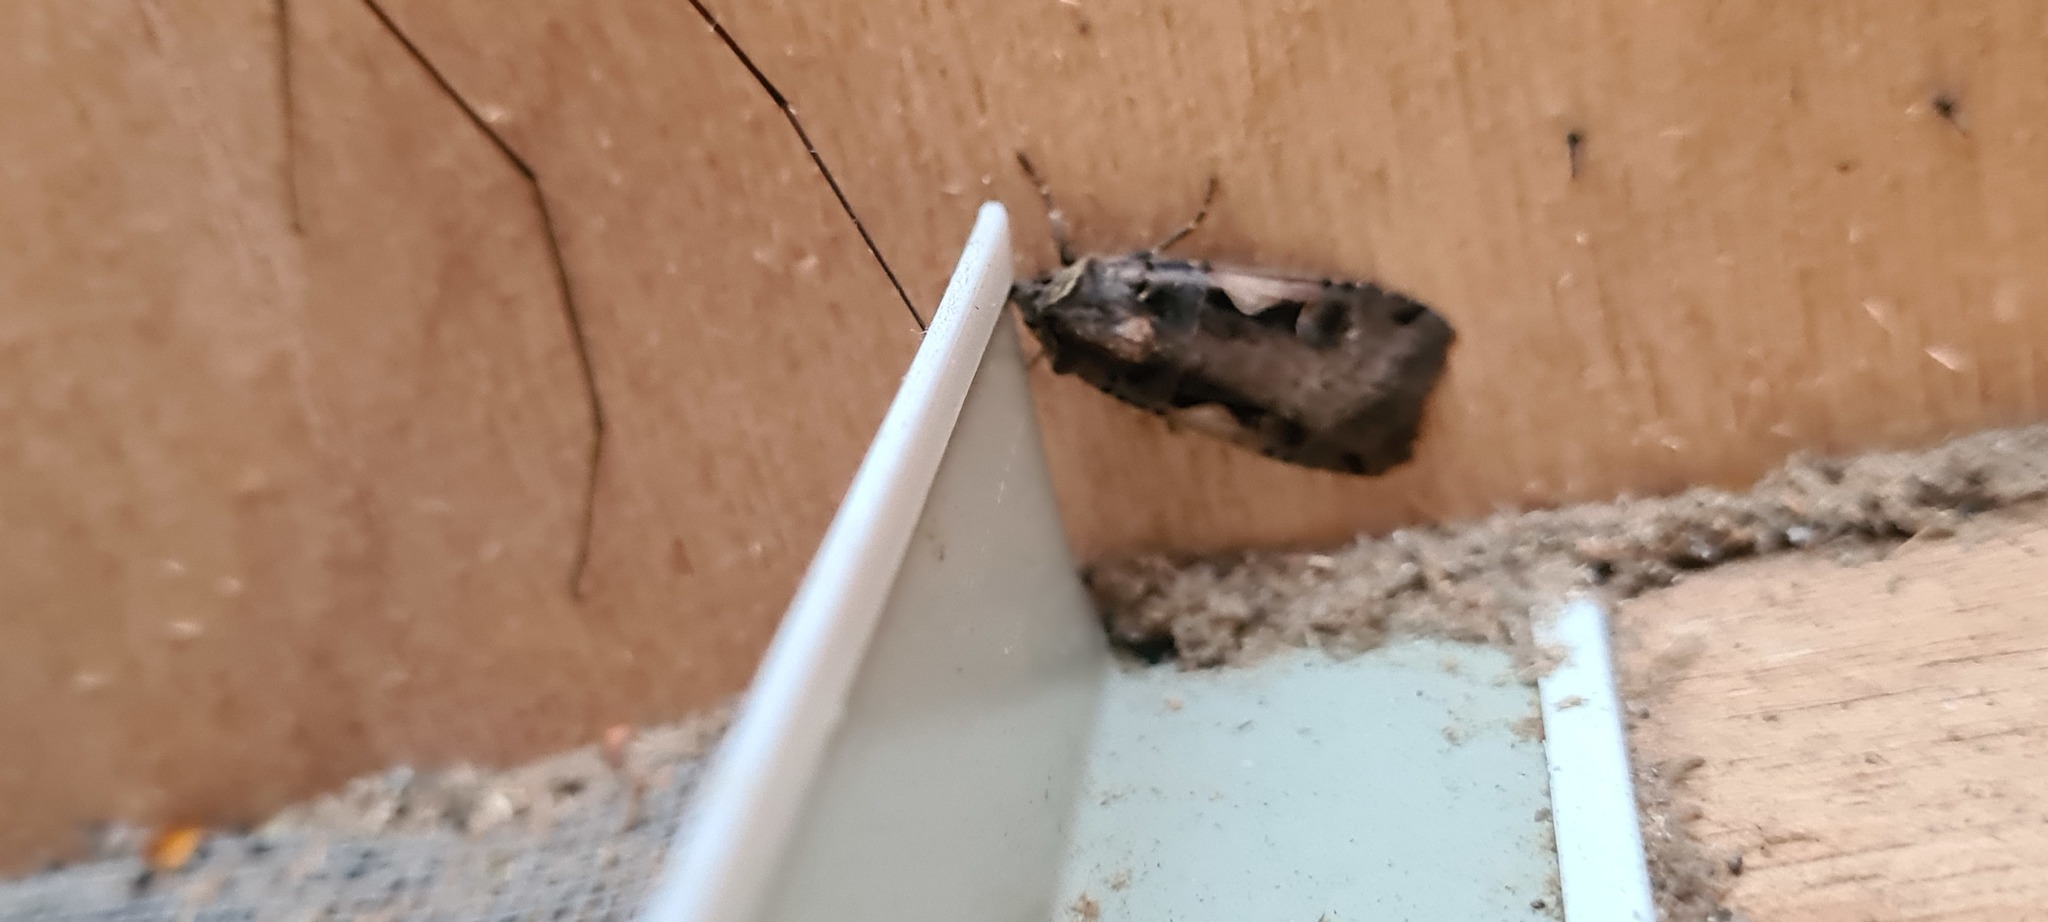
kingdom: Animalia
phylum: Arthropoda
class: Insecta
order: Lepidoptera
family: Noctuidae
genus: Xestia
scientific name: Xestia c-nigrum
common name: Setaceous hebrew character
